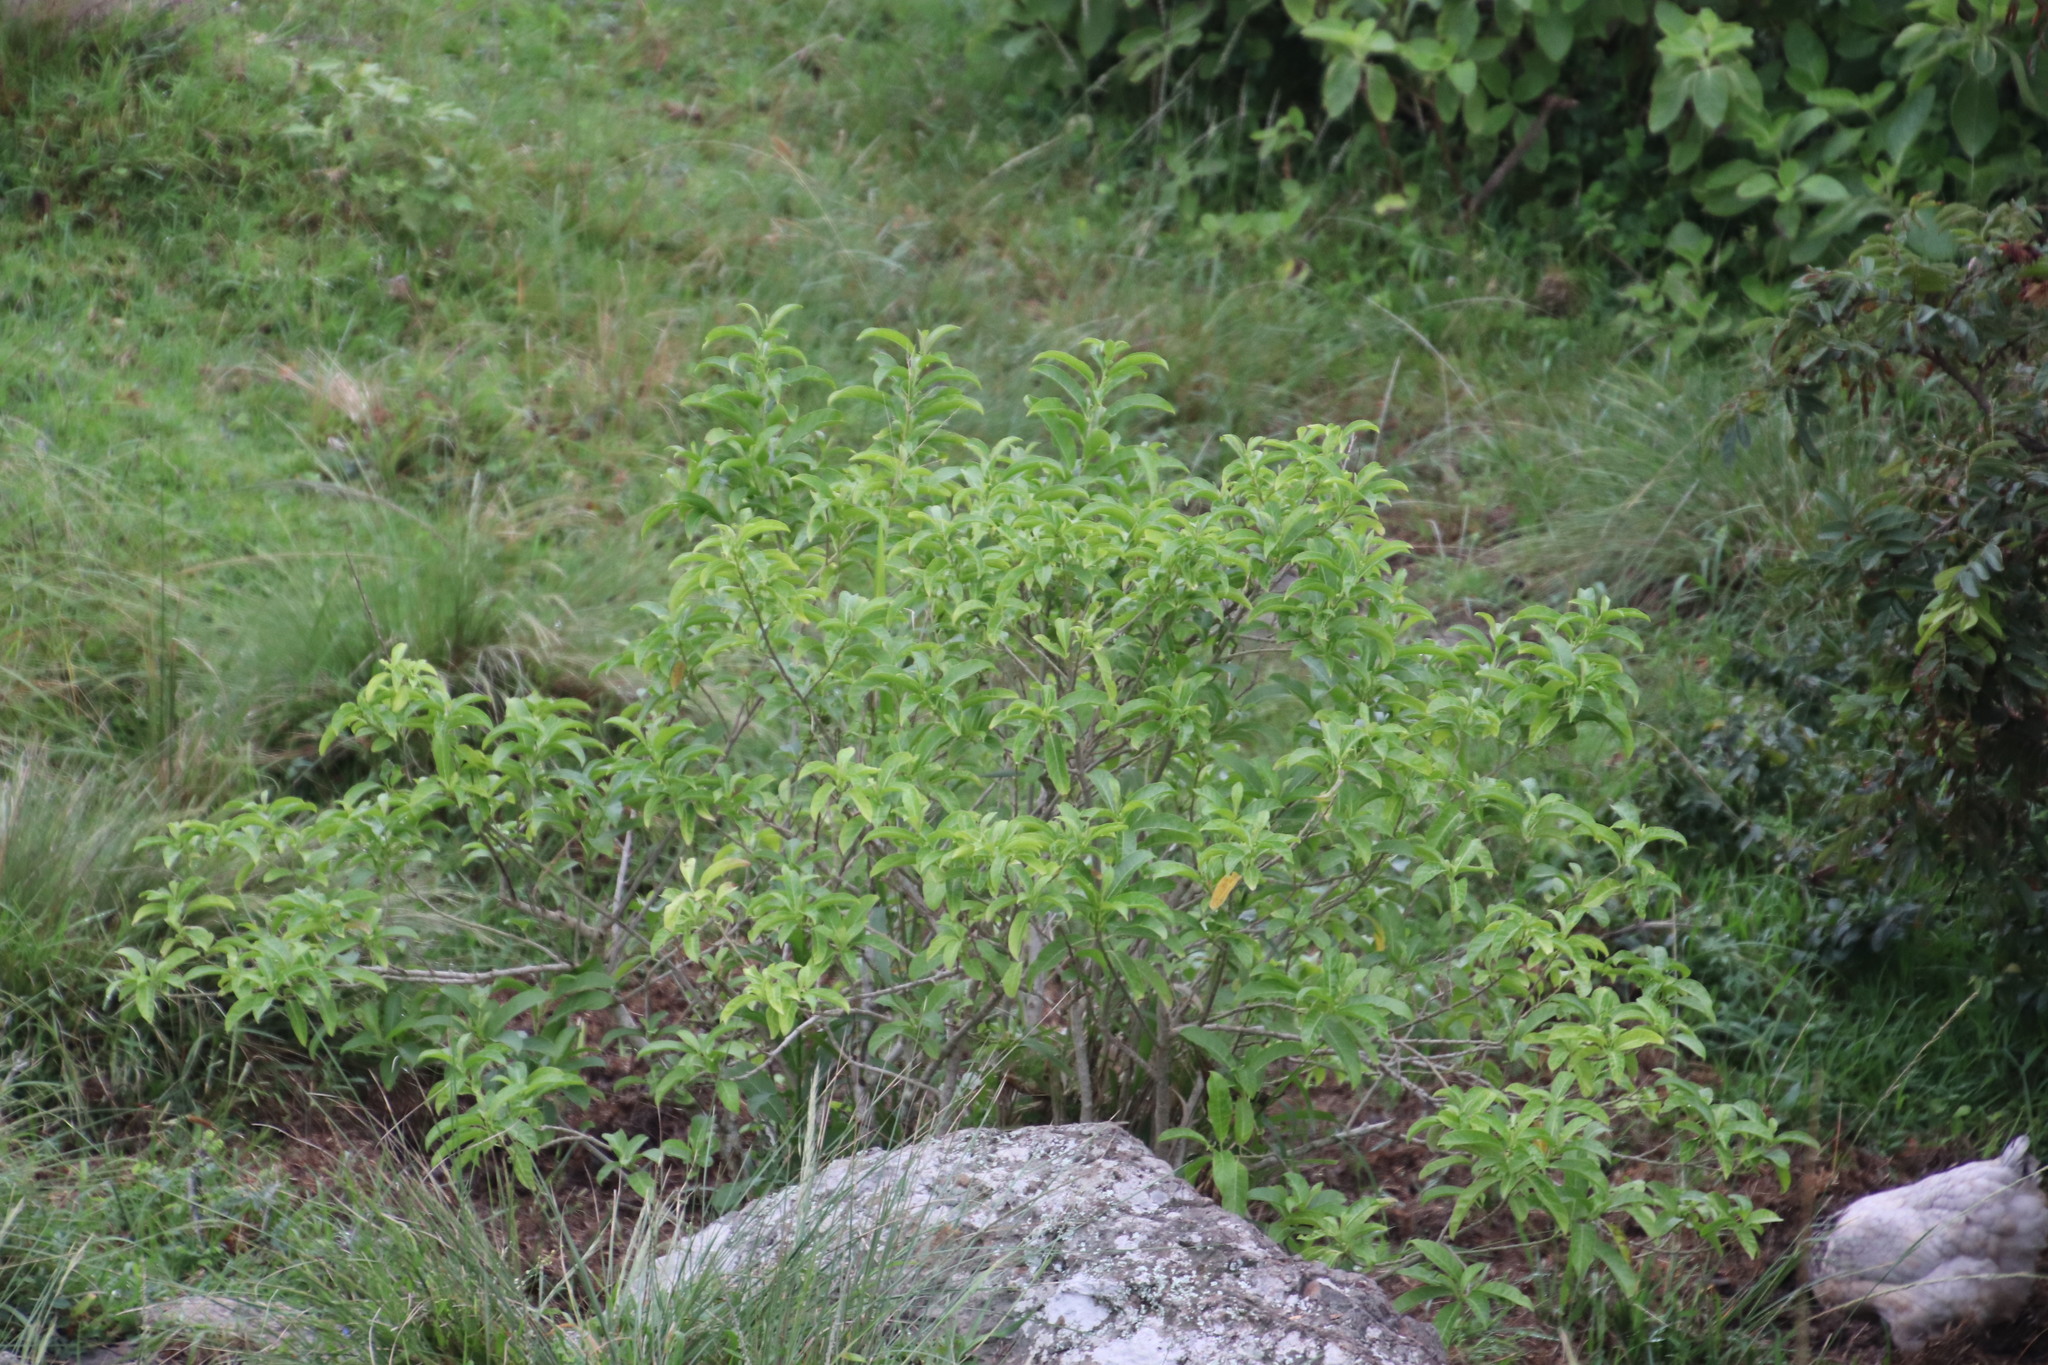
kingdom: Plantae
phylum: Tracheophyta
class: Magnoliopsida
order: Solanales
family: Solanaceae
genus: Cestrum
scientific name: Cestrum laevigatum
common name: Inkberry
